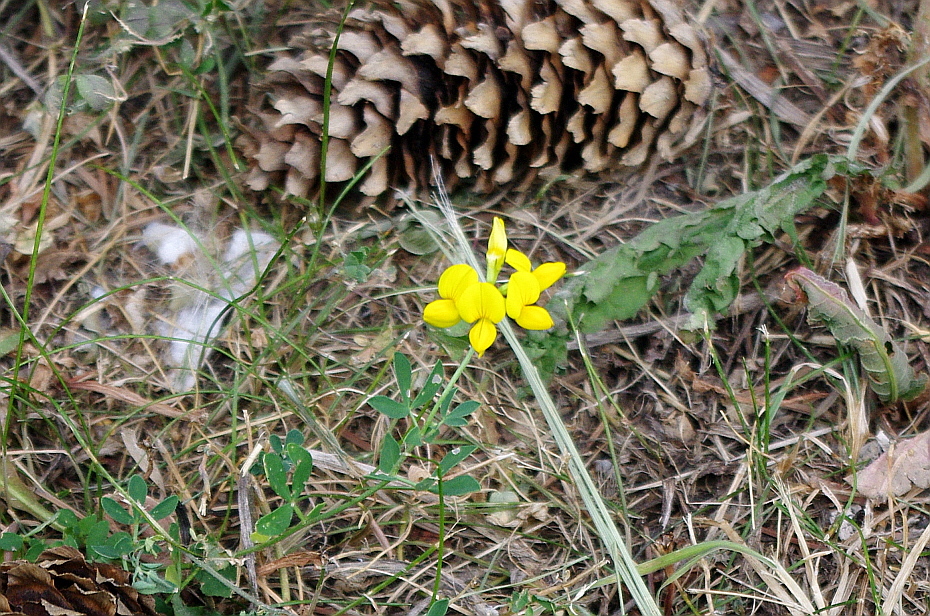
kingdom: Plantae
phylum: Tracheophyta
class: Magnoliopsida
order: Fabales
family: Fabaceae
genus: Lotus
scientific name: Lotus corniculatus
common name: Common bird's-foot-trefoil
